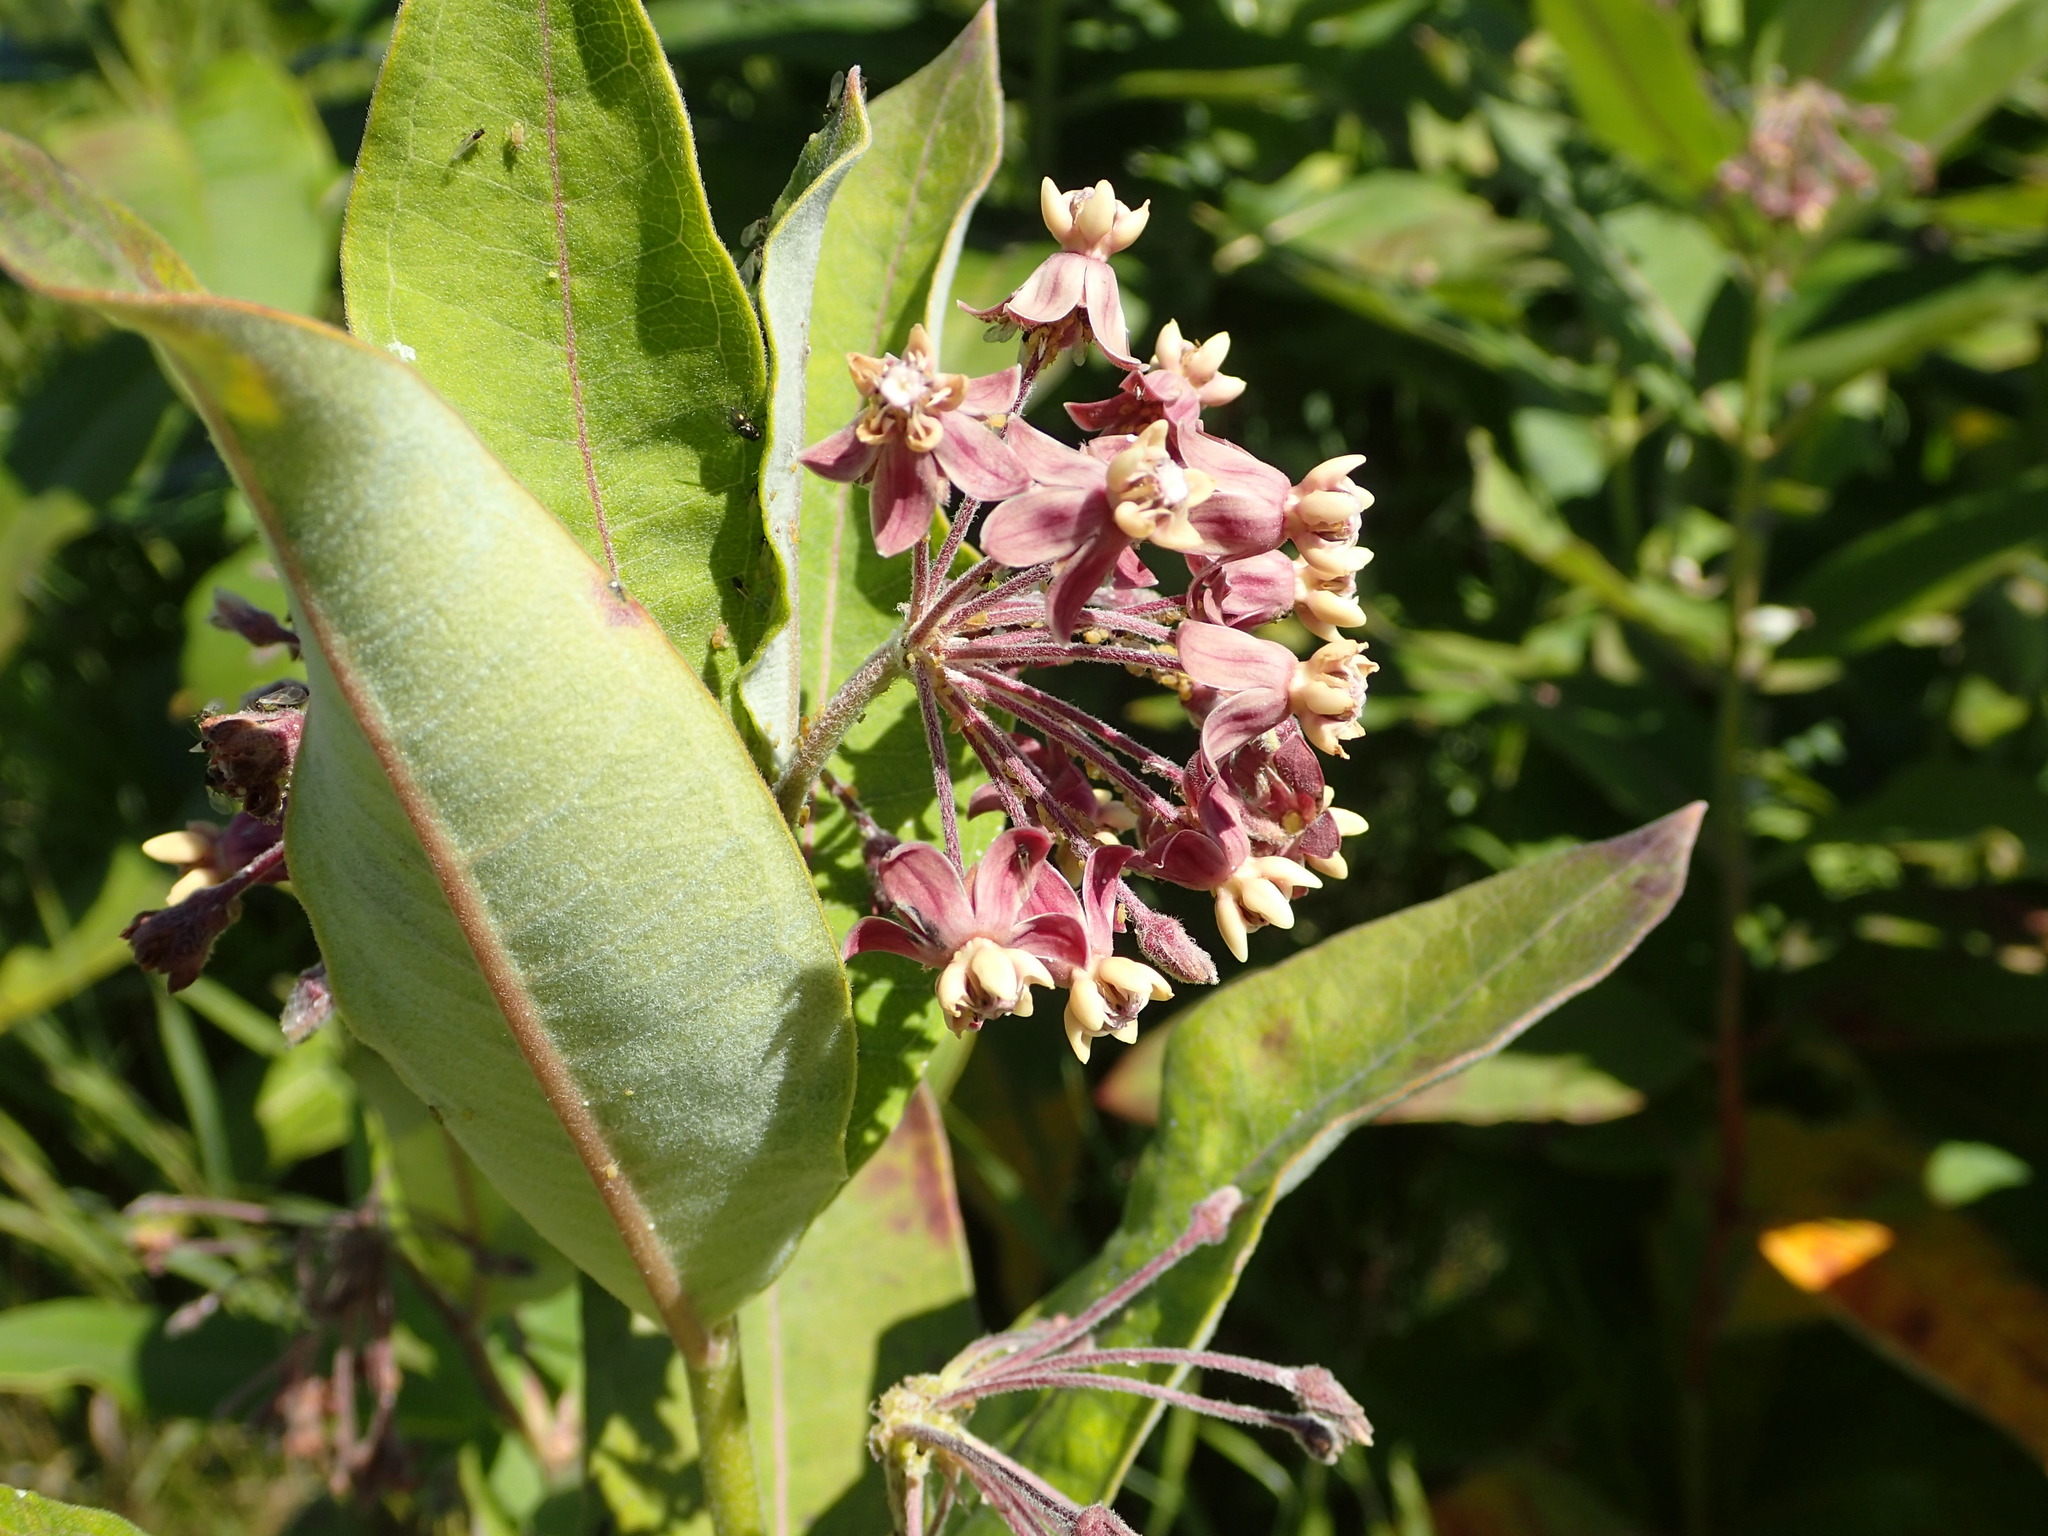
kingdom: Plantae
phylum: Tracheophyta
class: Magnoliopsida
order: Gentianales
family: Apocynaceae
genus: Asclepias
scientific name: Asclepias syriaca
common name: Common milkweed
